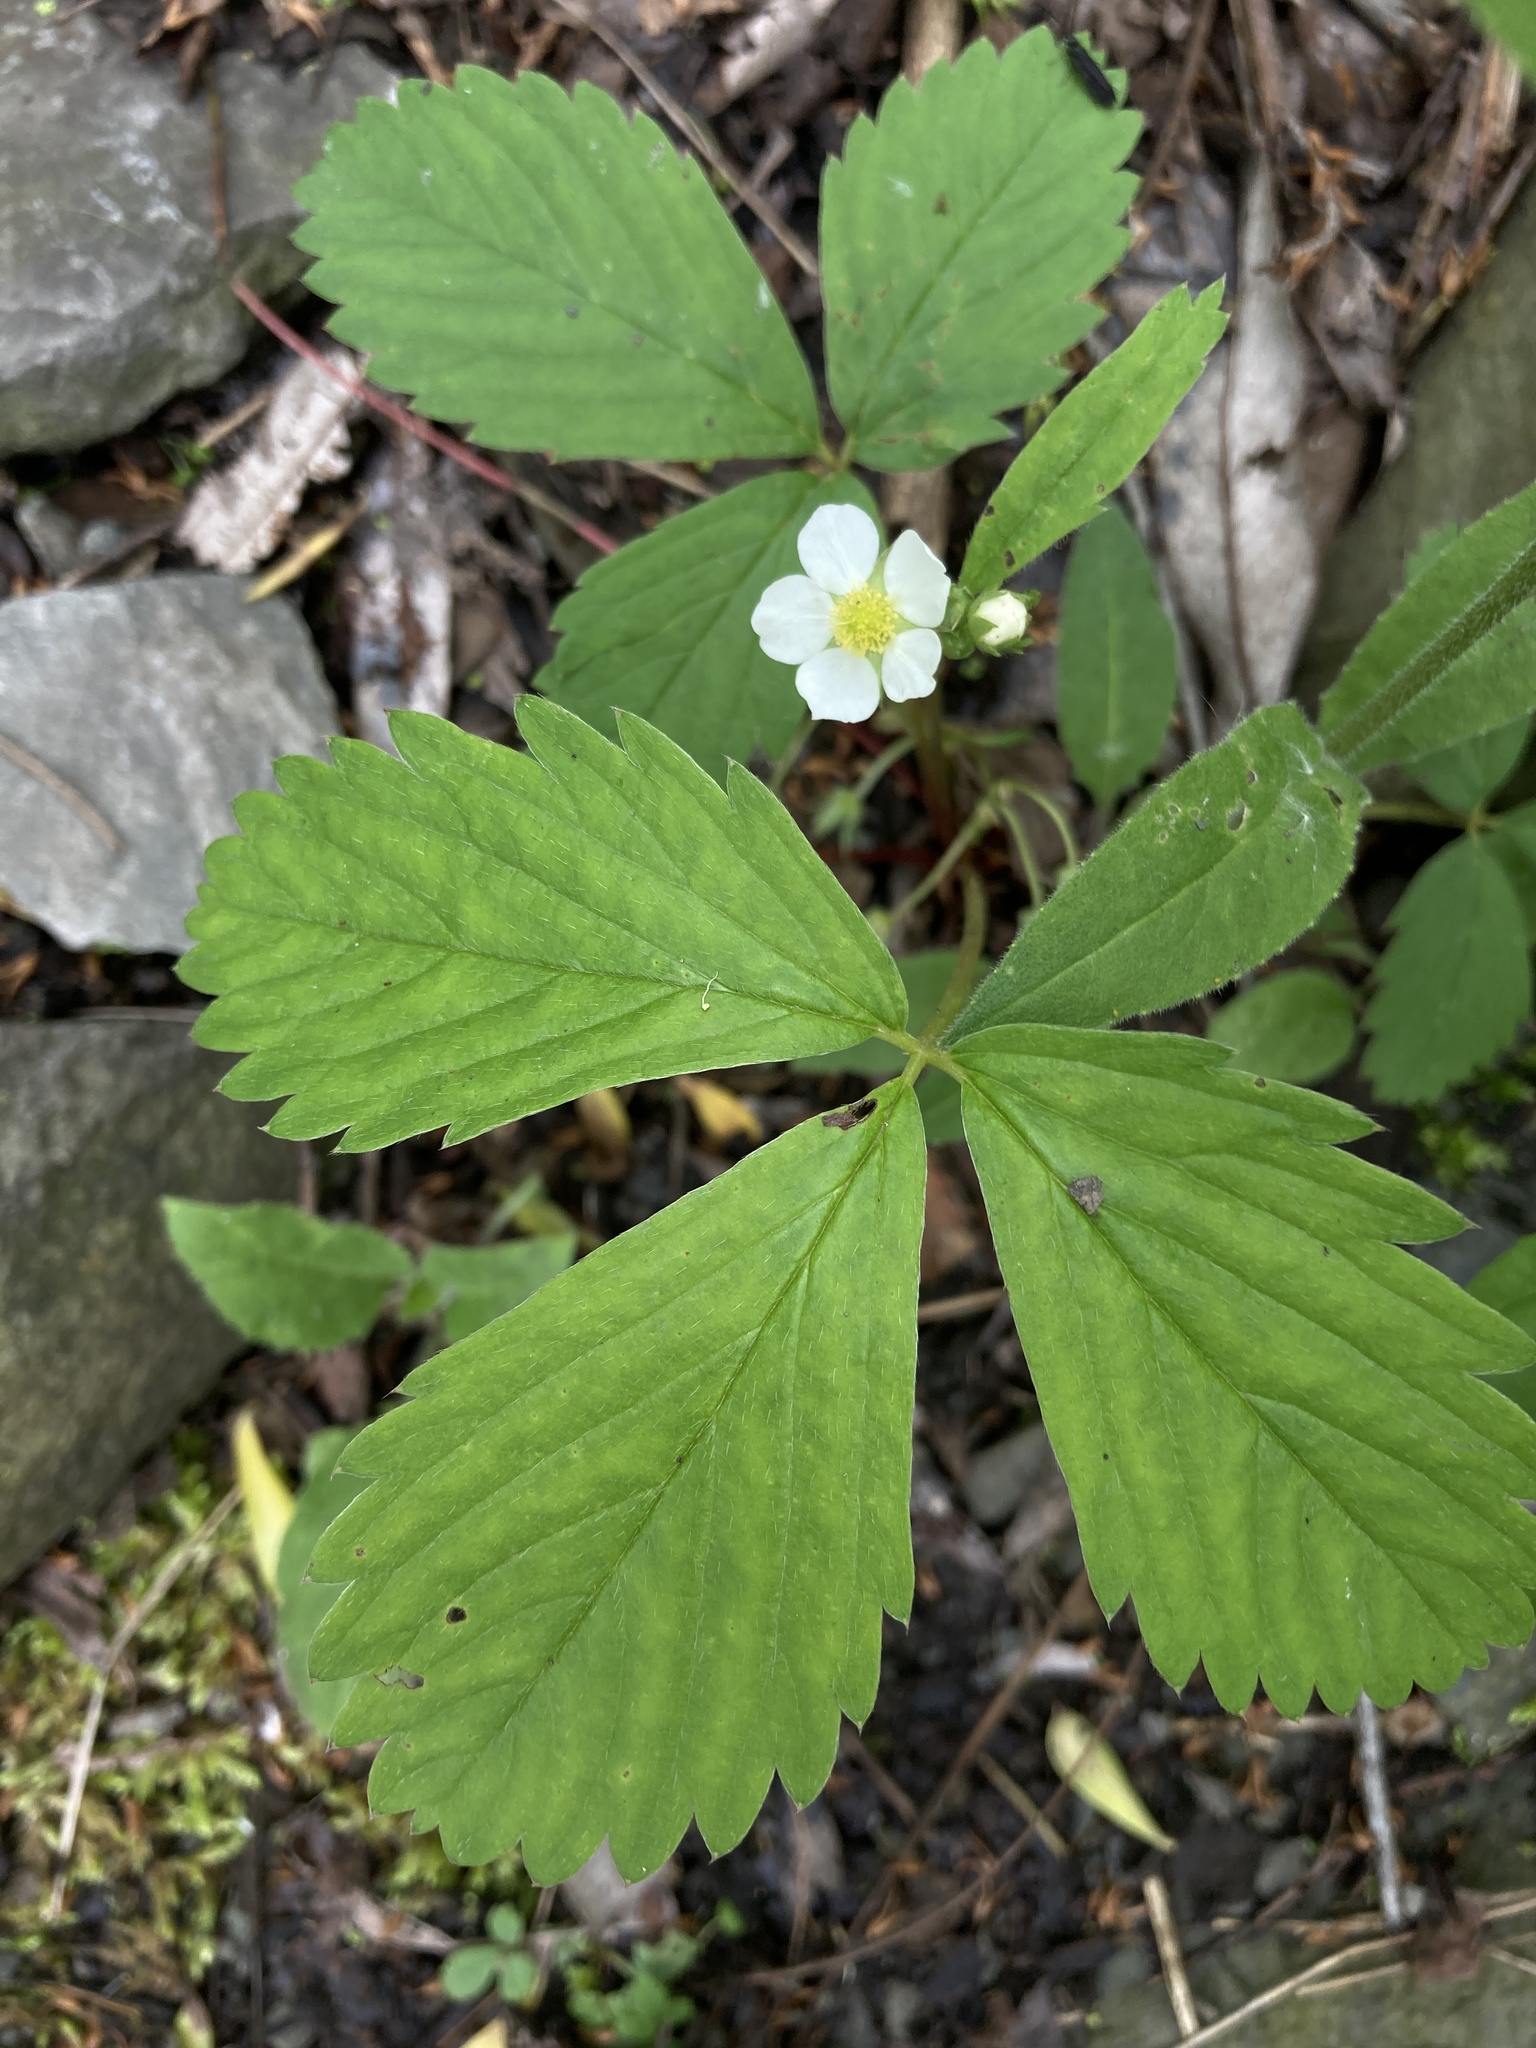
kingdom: Plantae
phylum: Tracheophyta
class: Magnoliopsida
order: Rosales
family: Rosaceae
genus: Fragaria
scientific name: Fragaria virginiana
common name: Thickleaved wild strawberry
